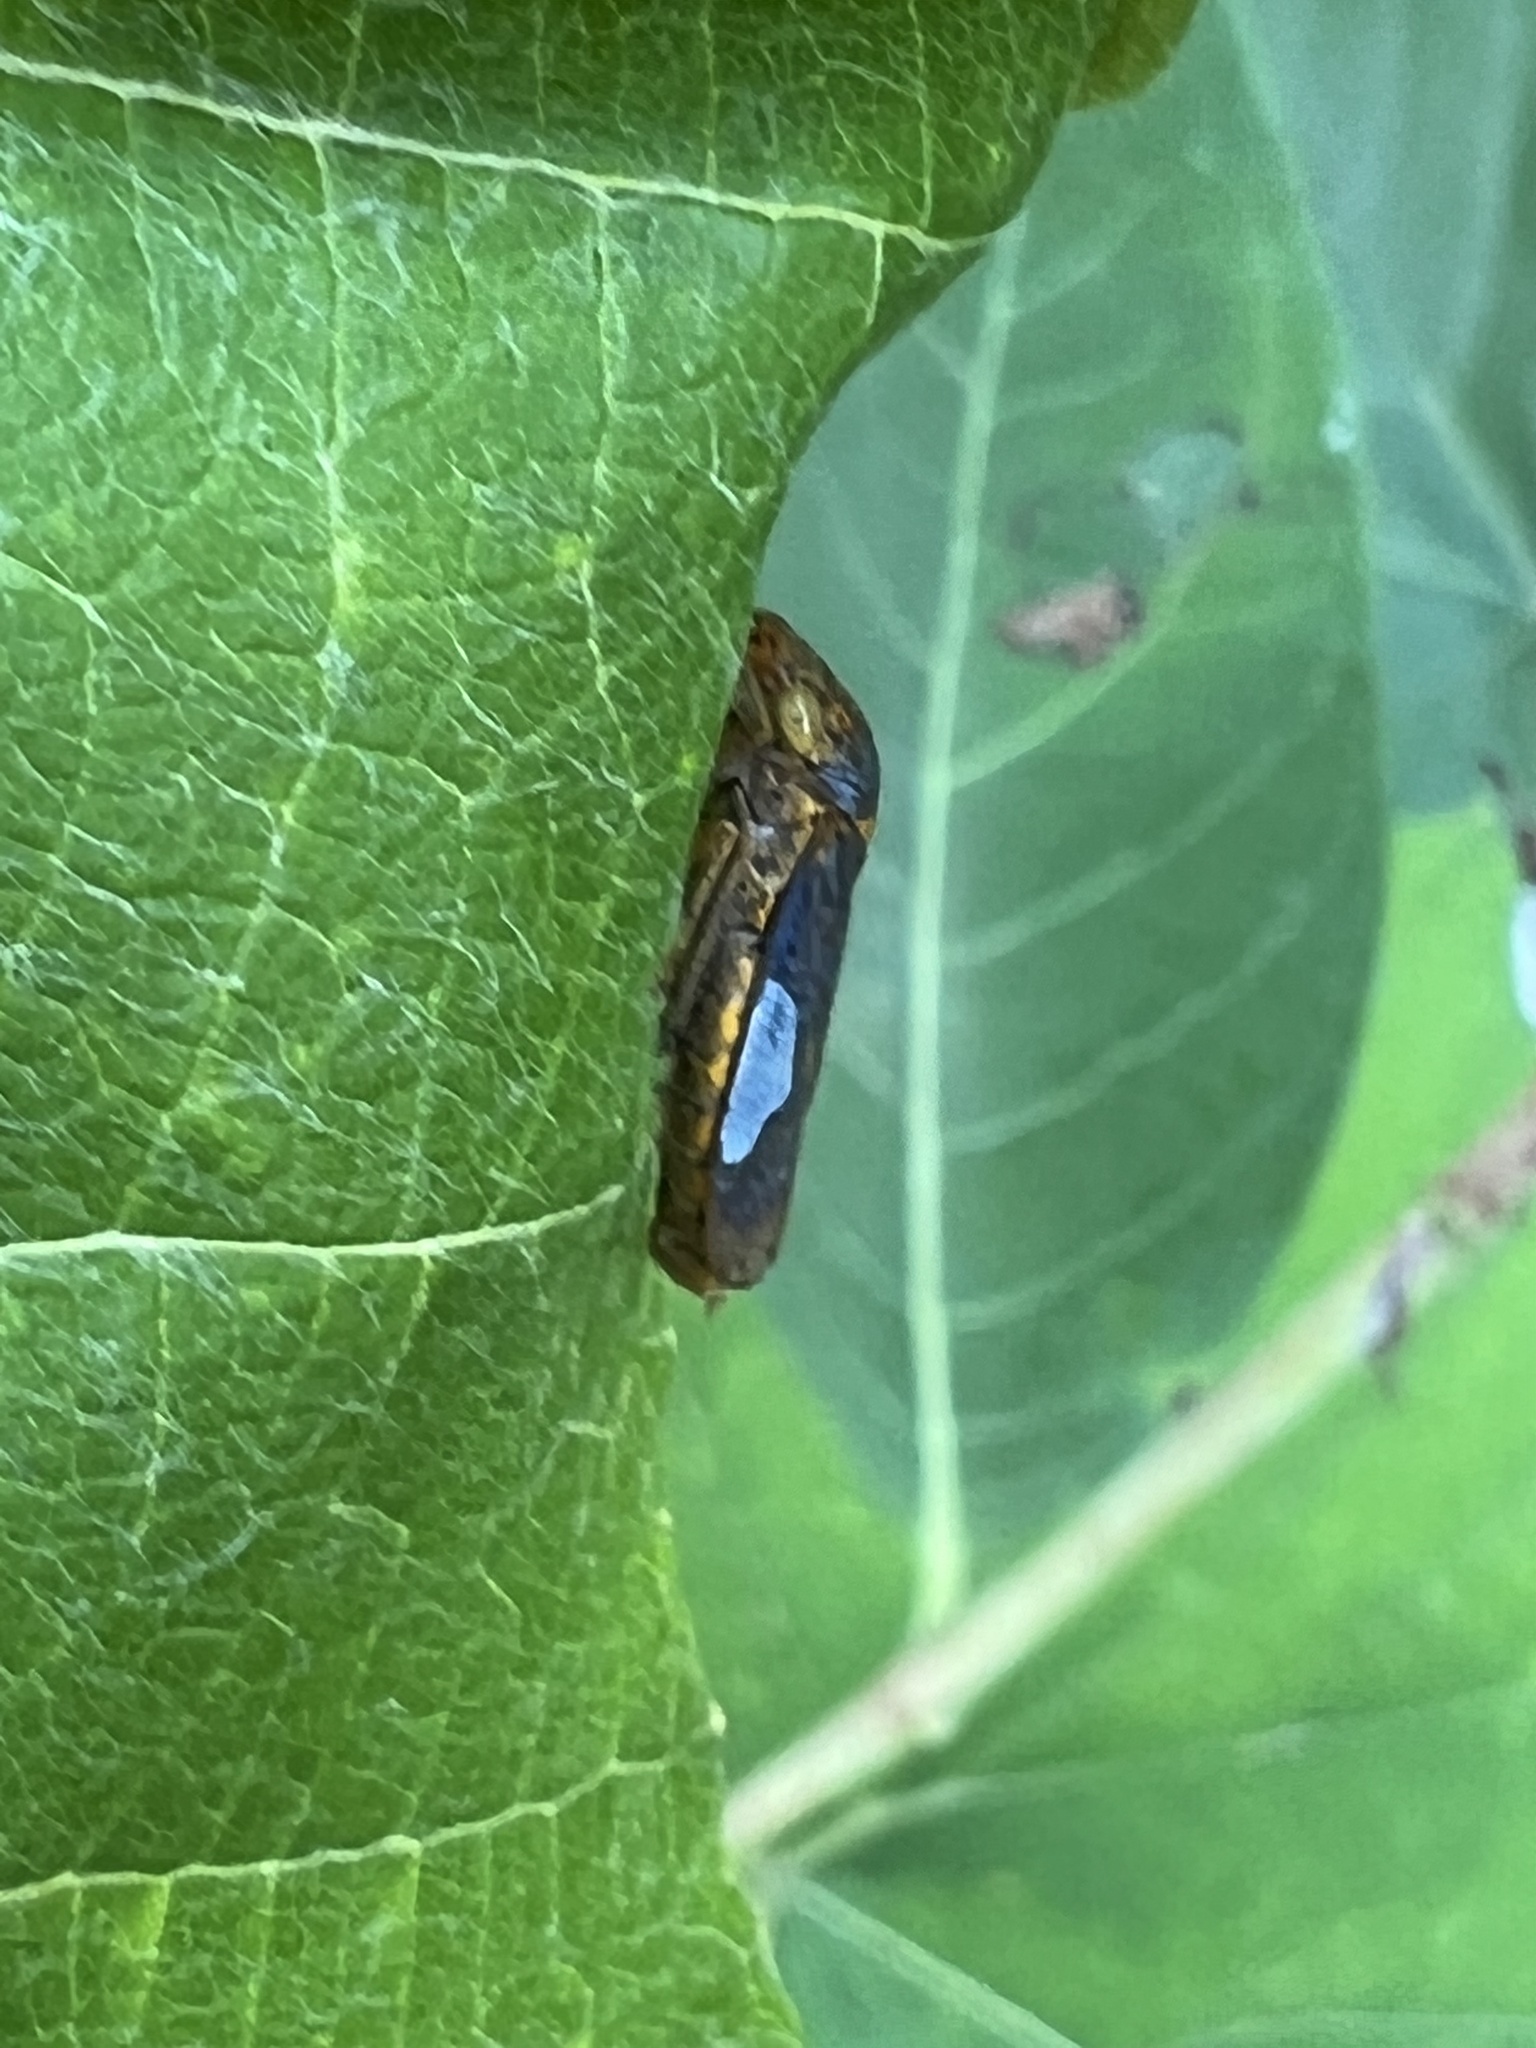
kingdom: Animalia
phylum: Arthropoda
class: Insecta
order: Hemiptera
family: Cicadellidae
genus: Oncometopia
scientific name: Oncometopia orbona
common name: Broad-headed sharpshooter
